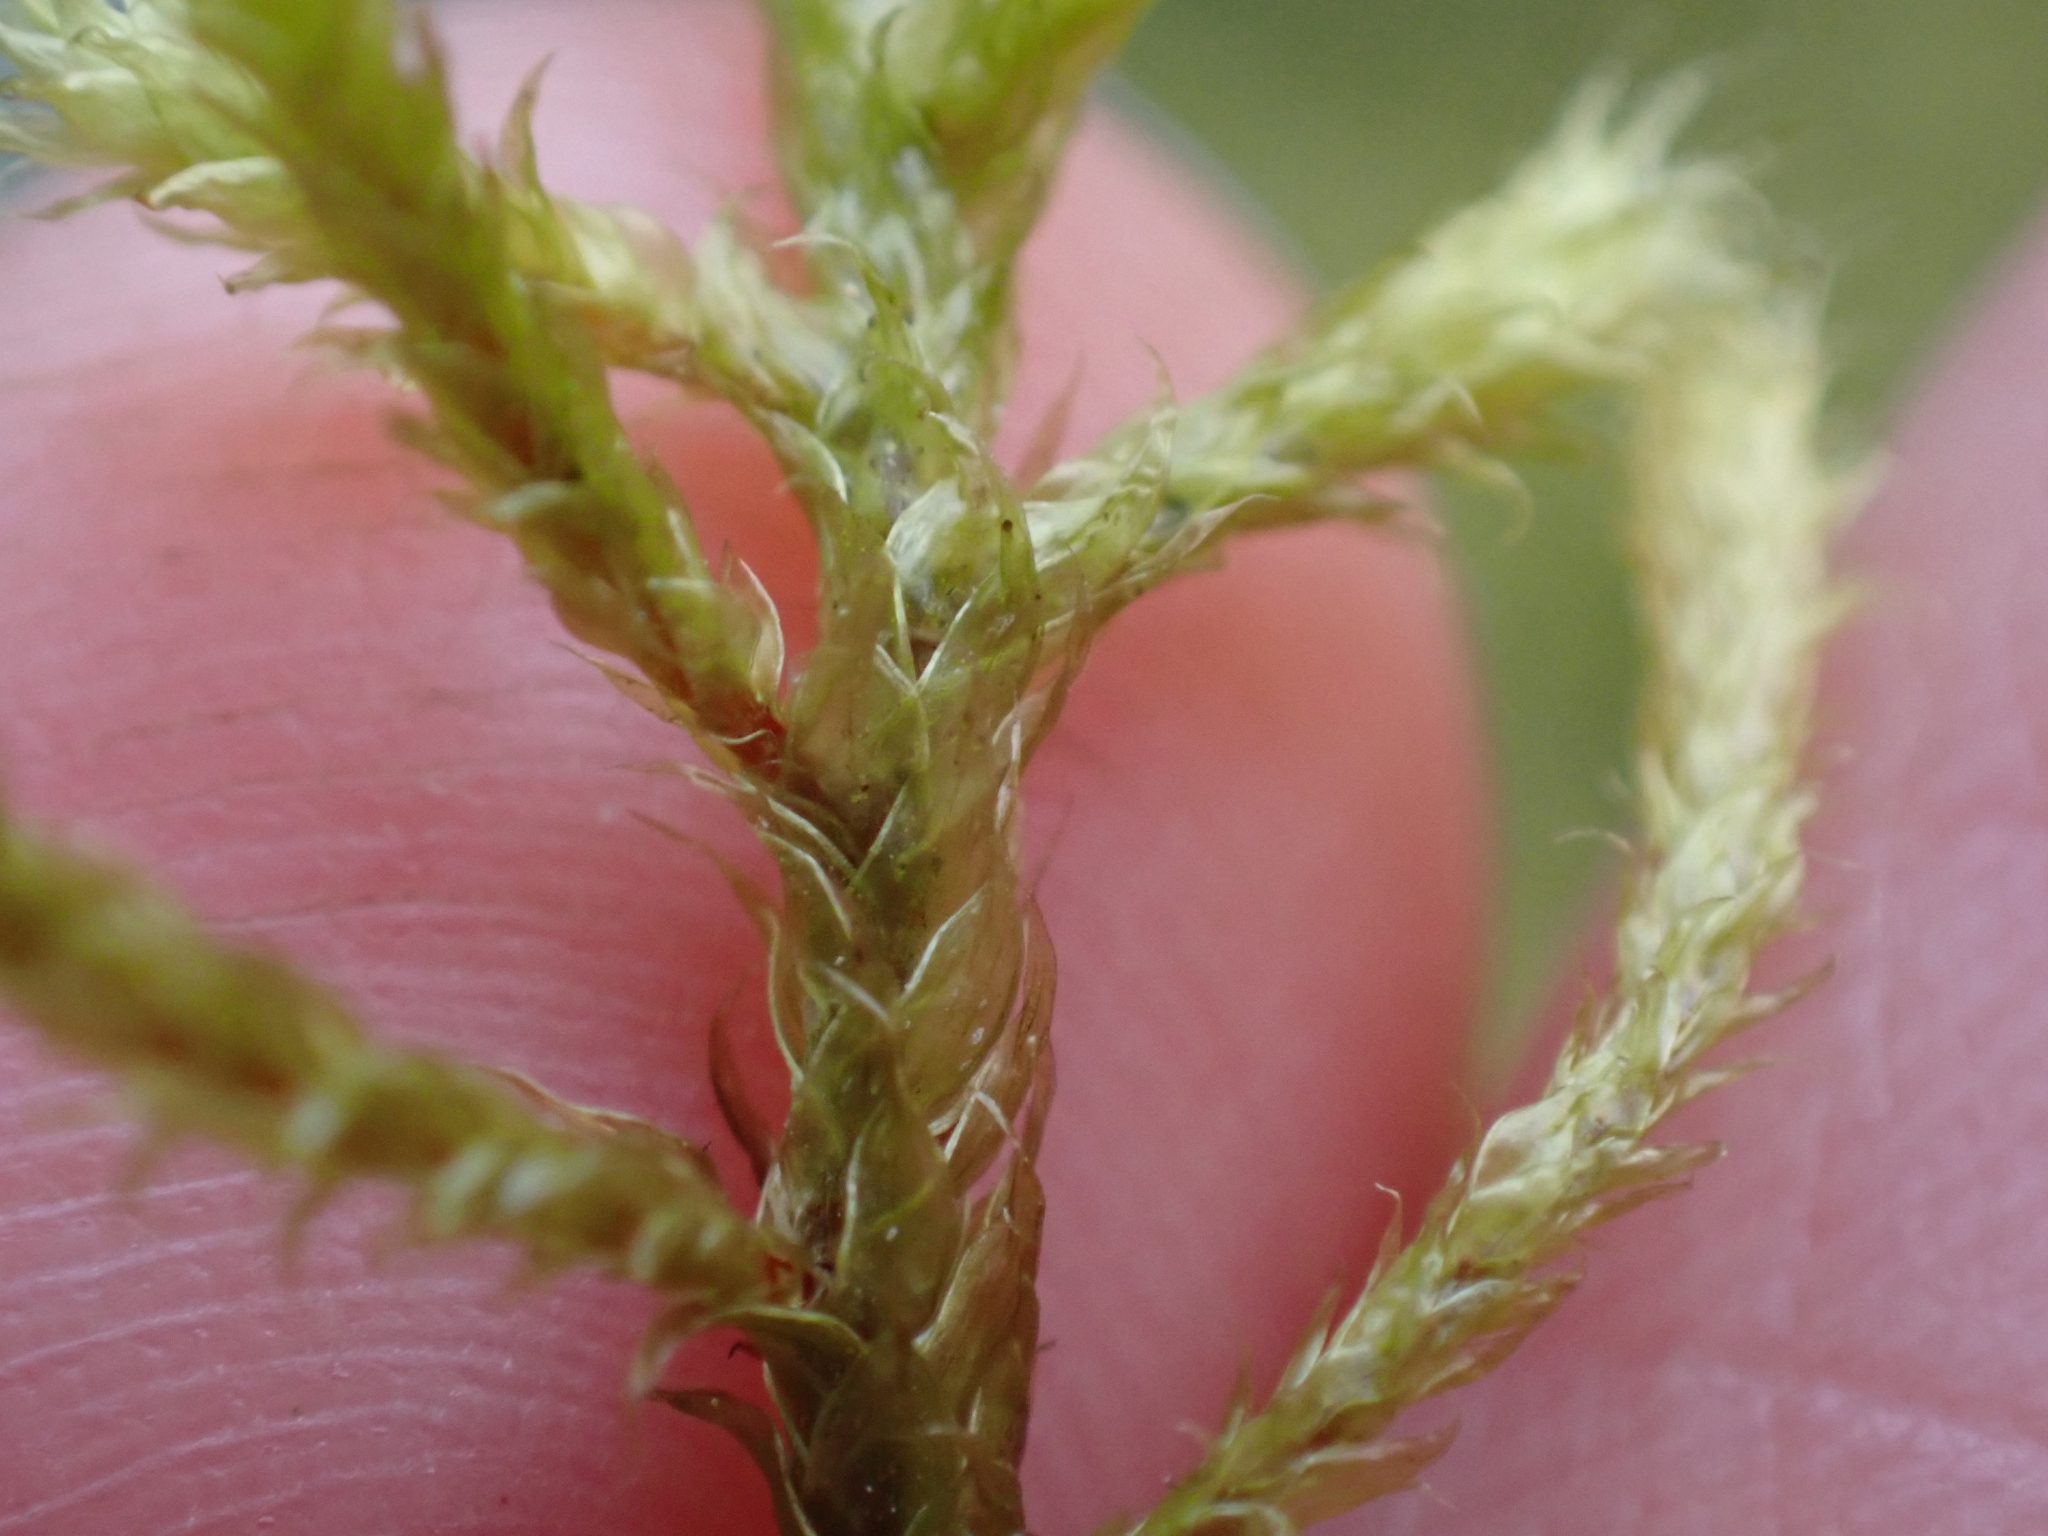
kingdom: Plantae
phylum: Bryophyta
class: Bryopsida
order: Hypnales
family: Antitrichiaceae
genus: Antitrichia
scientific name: Antitrichia curtipendula
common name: Pendulous wing-moss
